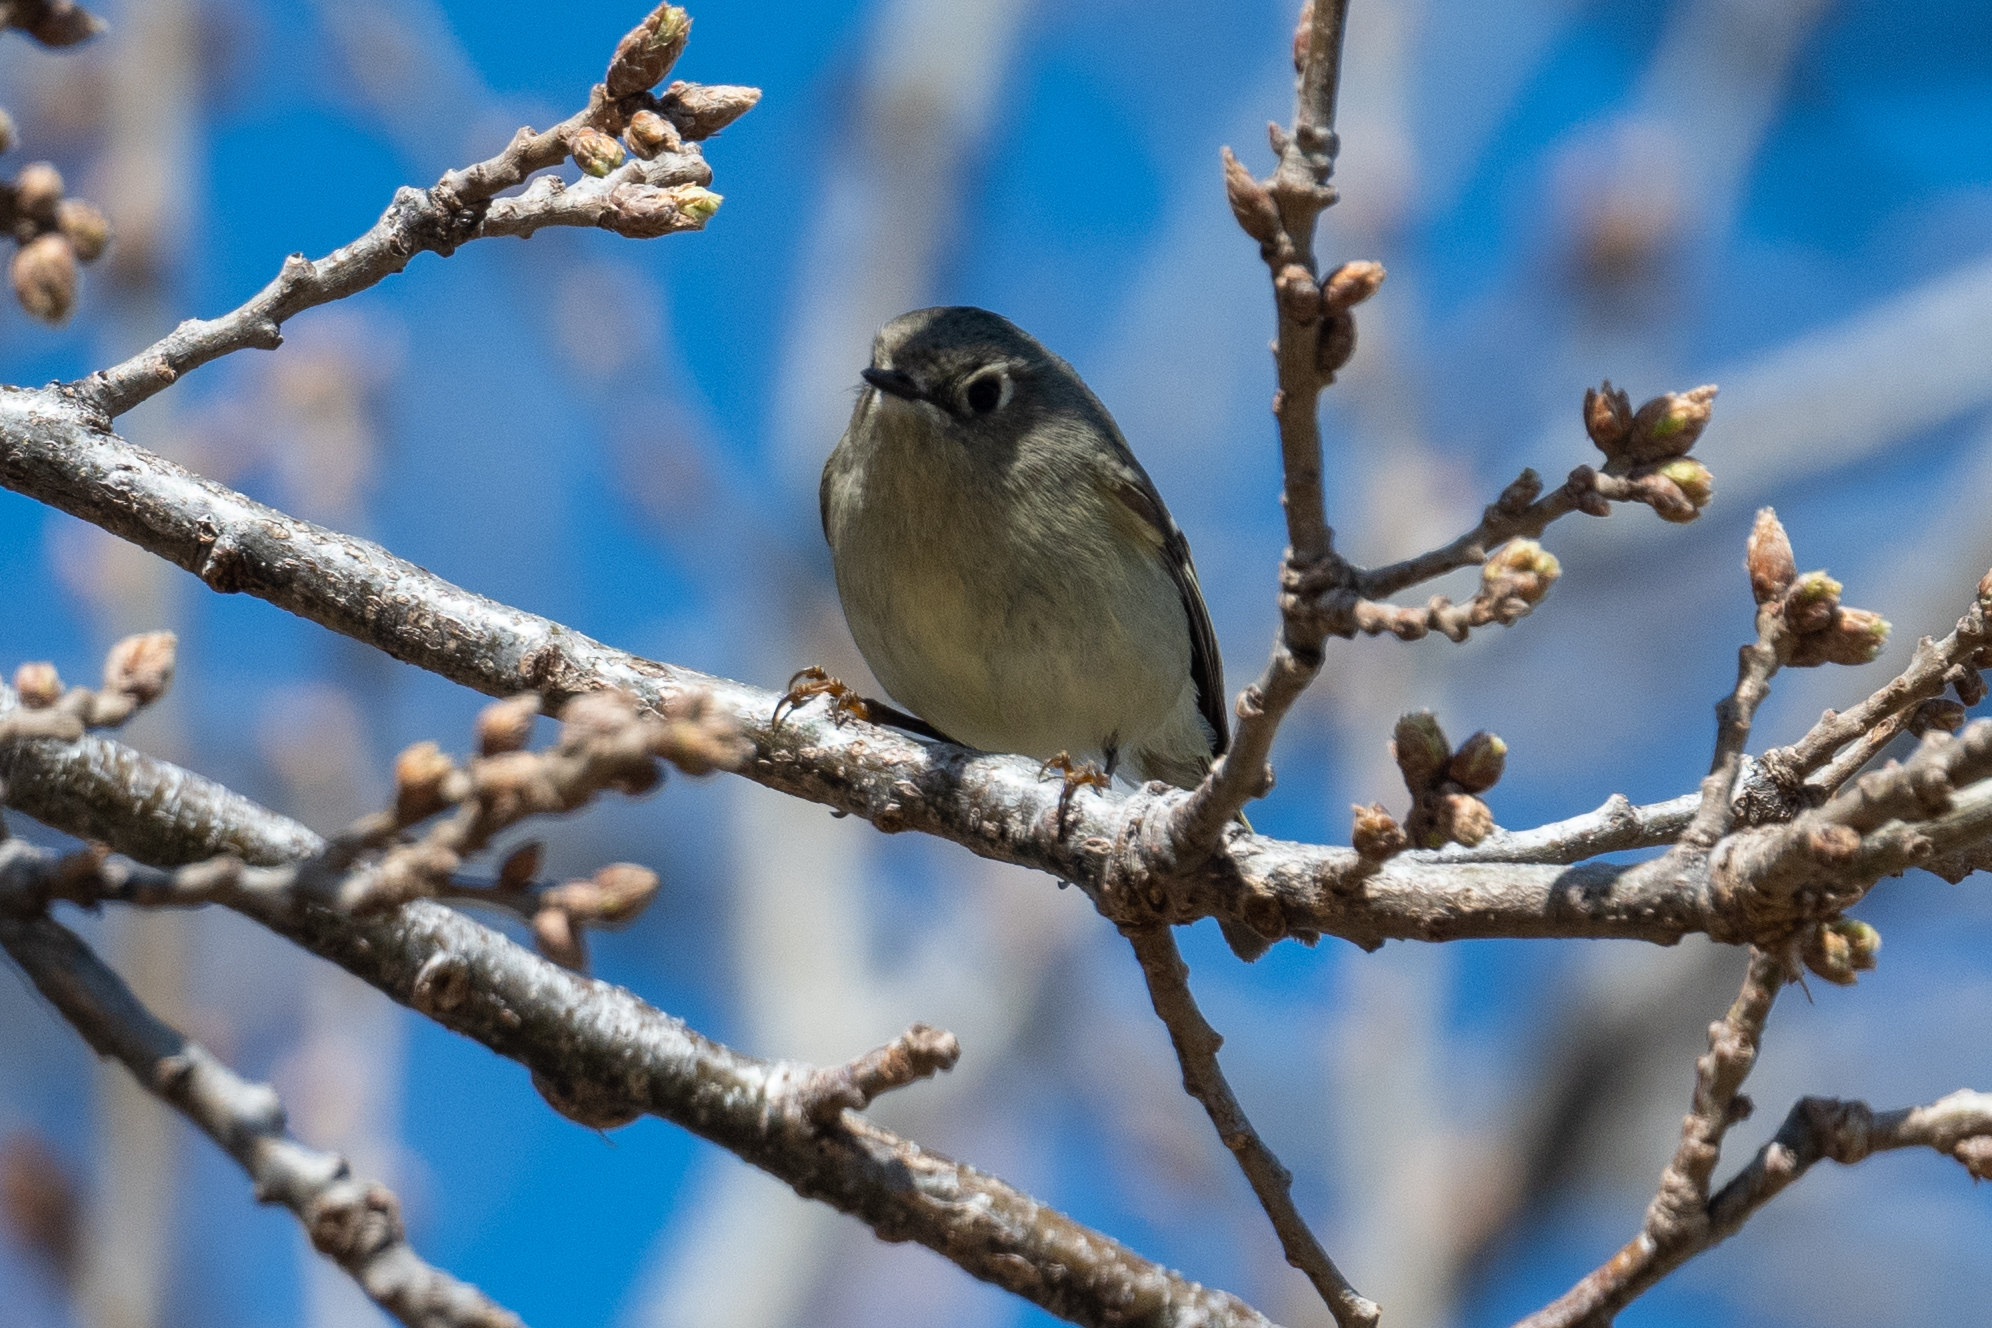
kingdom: Animalia
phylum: Chordata
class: Aves
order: Passeriformes
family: Regulidae
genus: Regulus
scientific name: Regulus calendula
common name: Ruby-crowned kinglet
